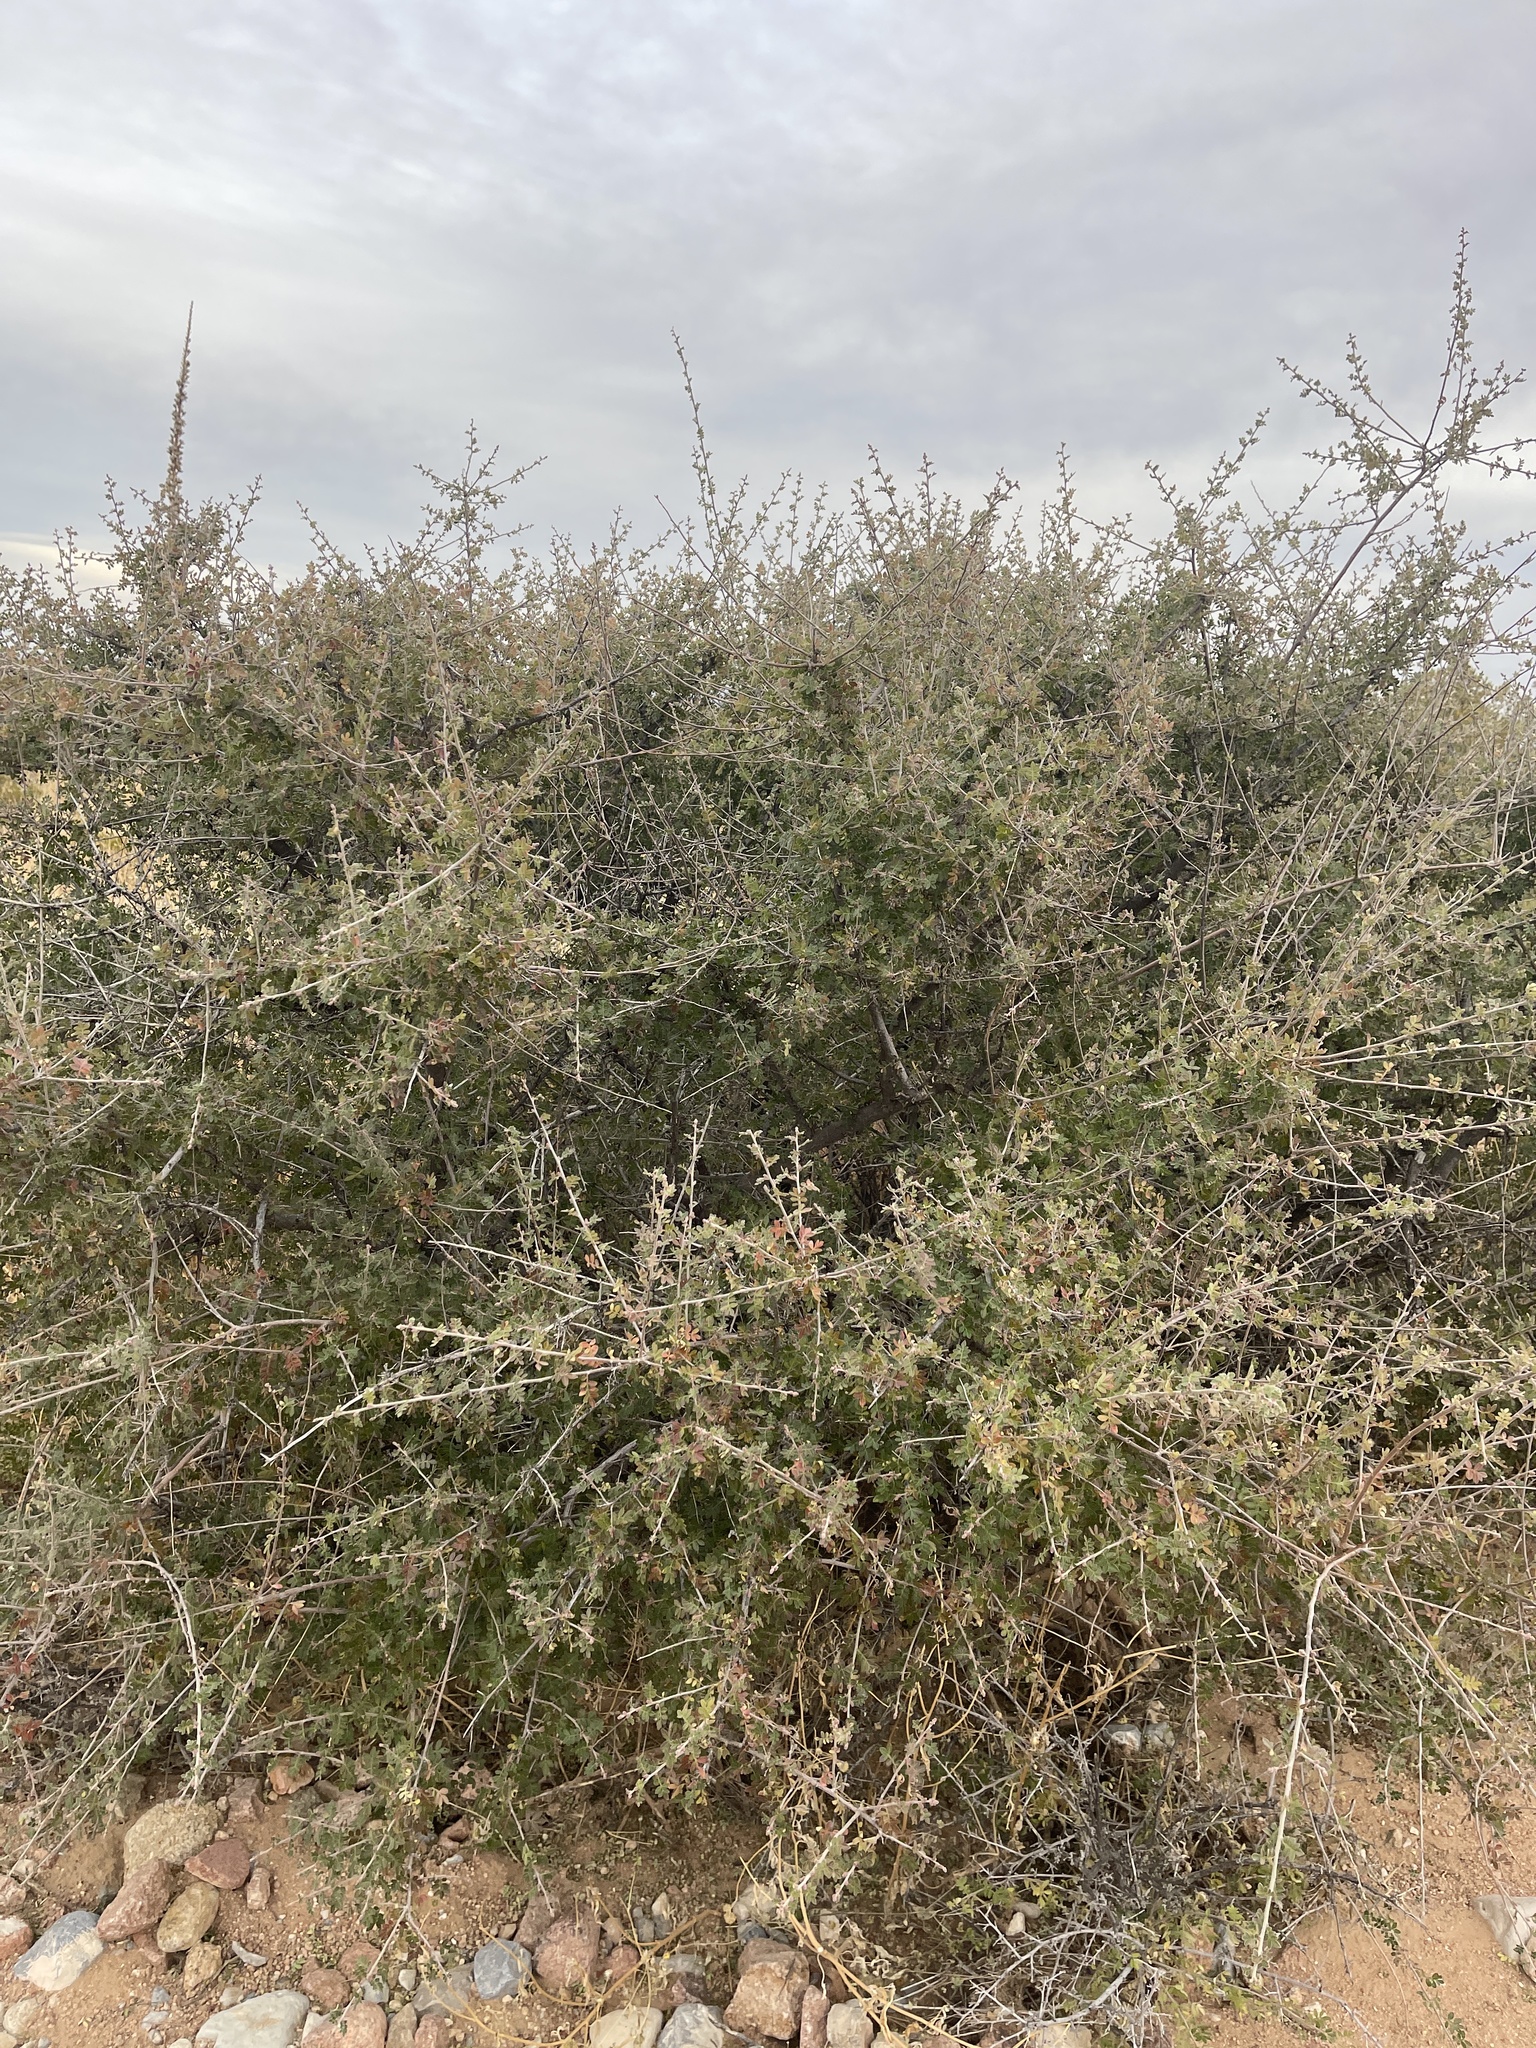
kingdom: Plantae
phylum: Tracheophyta
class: Magnoliopsida
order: Sapindales
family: Anacardiaceae
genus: Rhus
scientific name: Rhus microphylla
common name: Desert sumac
